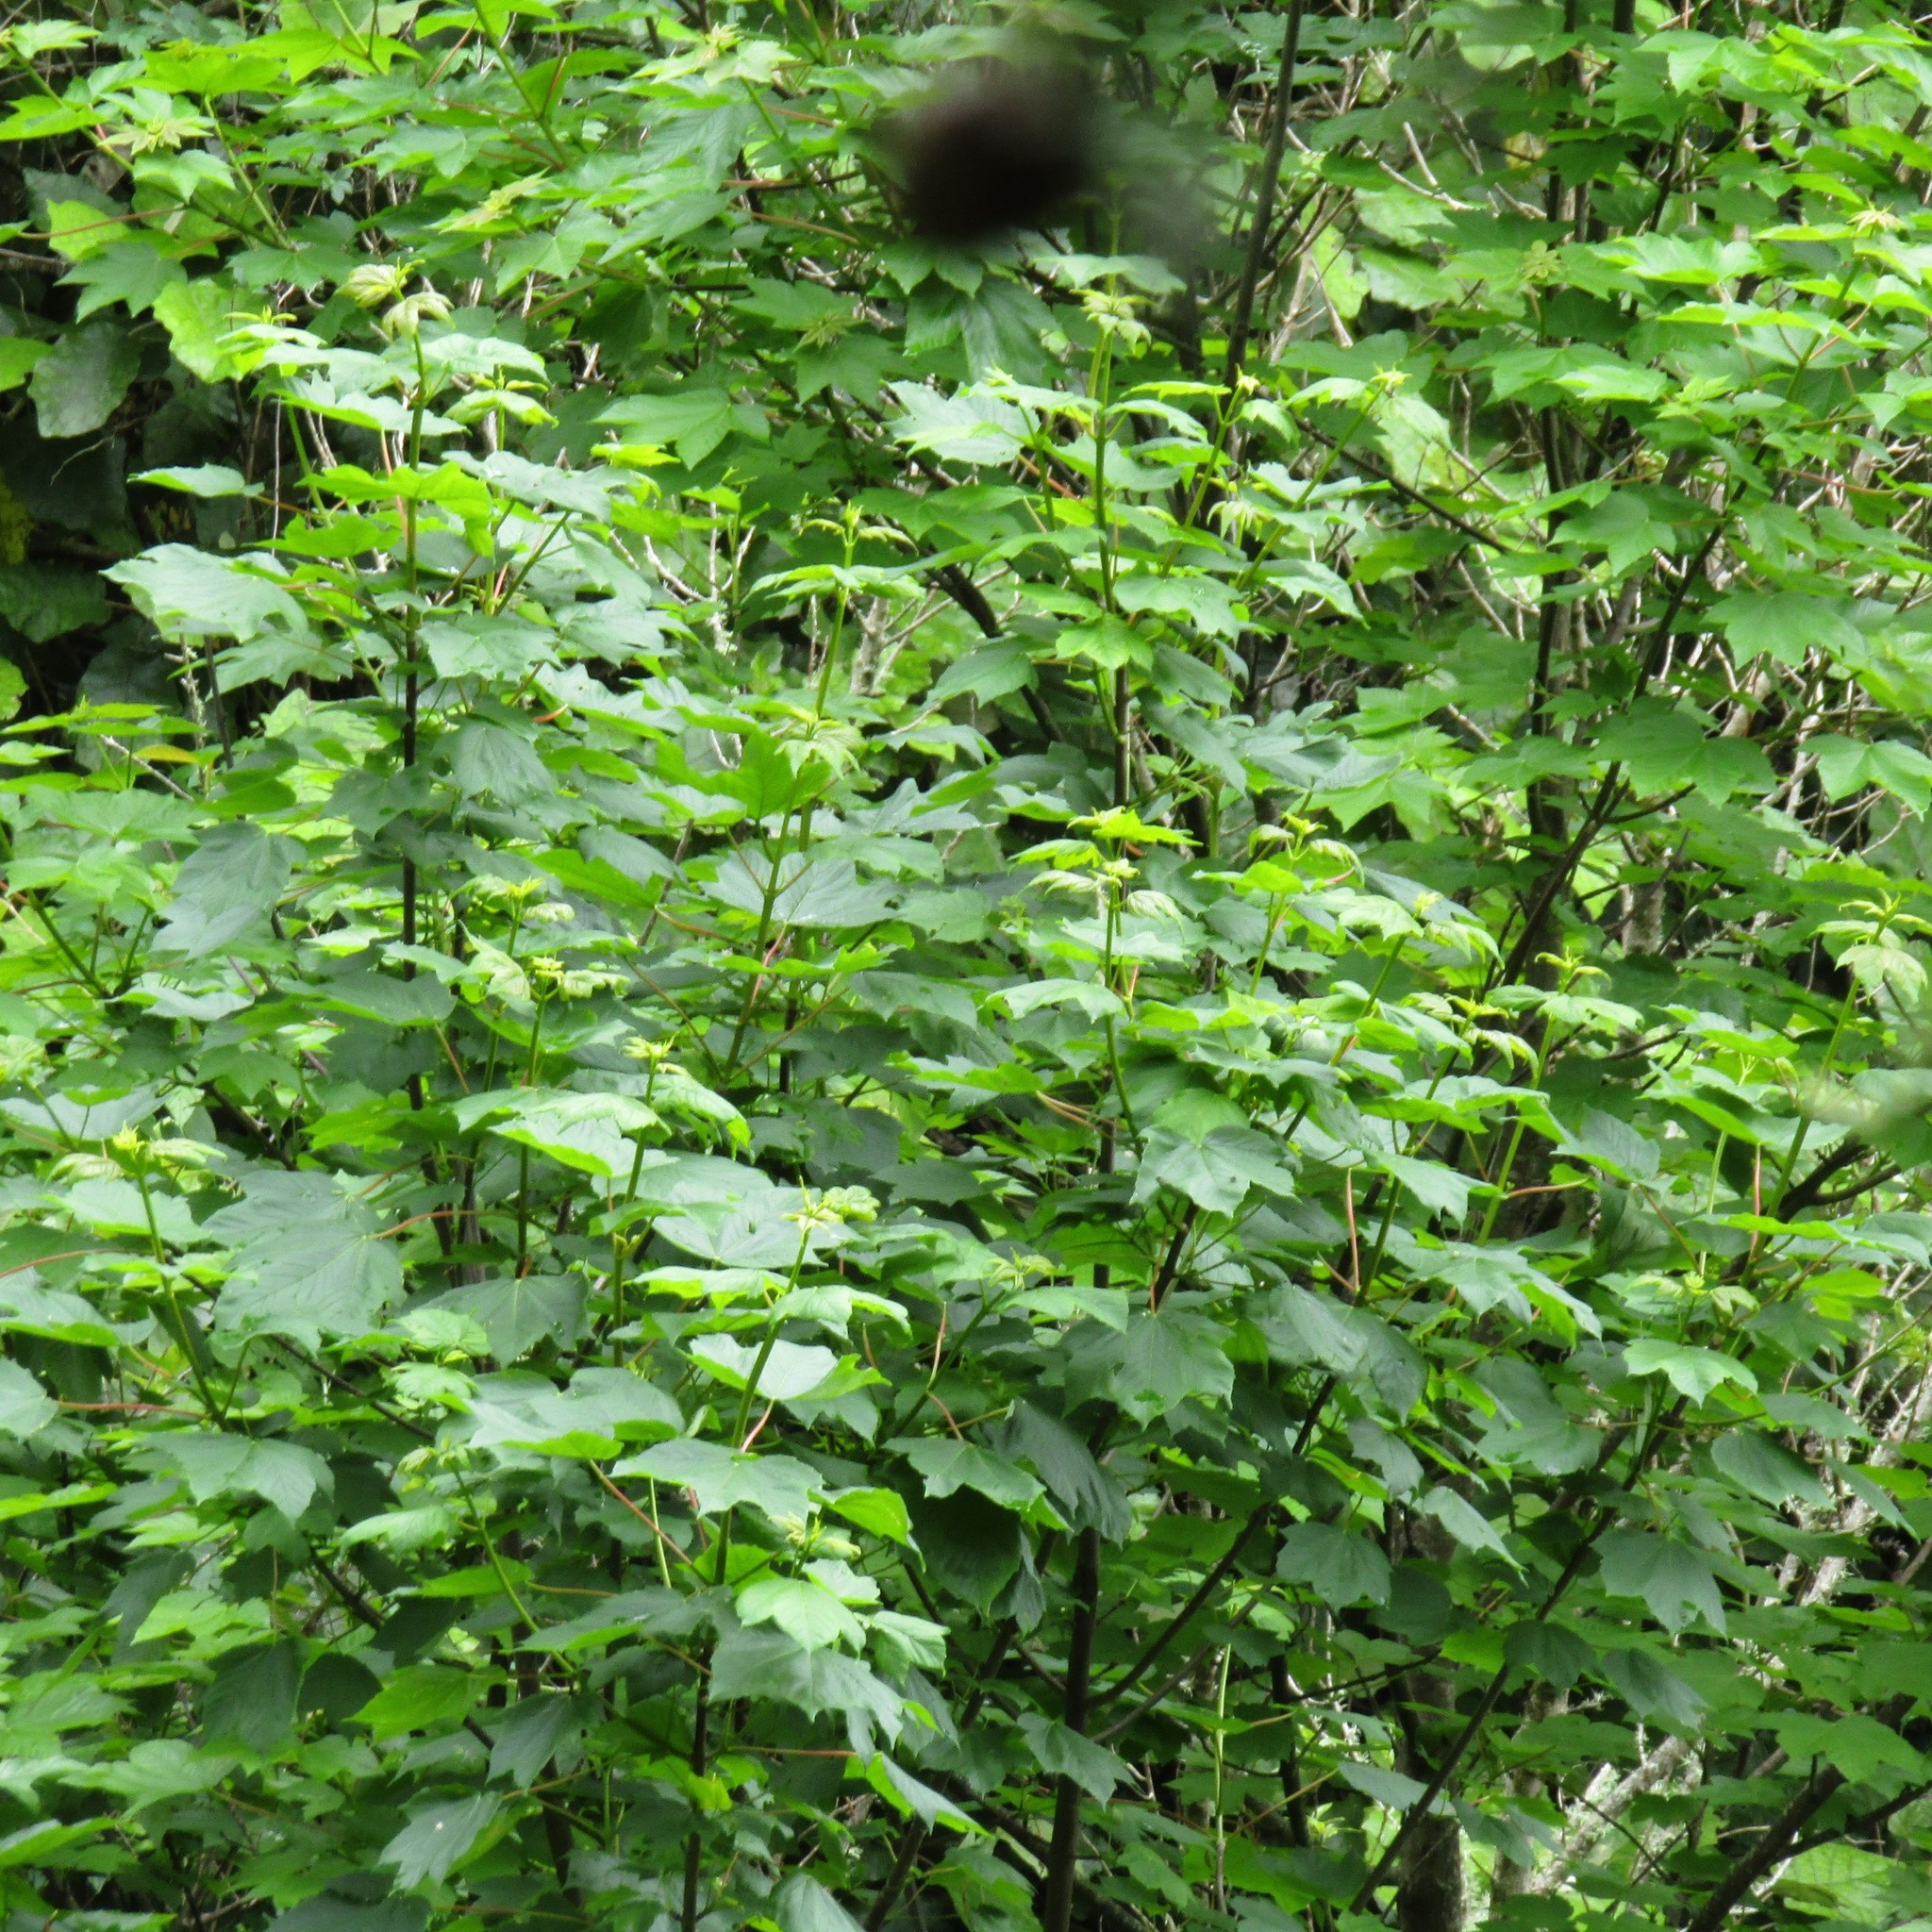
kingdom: Plantae
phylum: Tracheophyta
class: Magnoliopsida
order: Sapindales
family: Sapindaceae
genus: Acer
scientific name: Acer pseudoplatanus
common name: Sycamore
